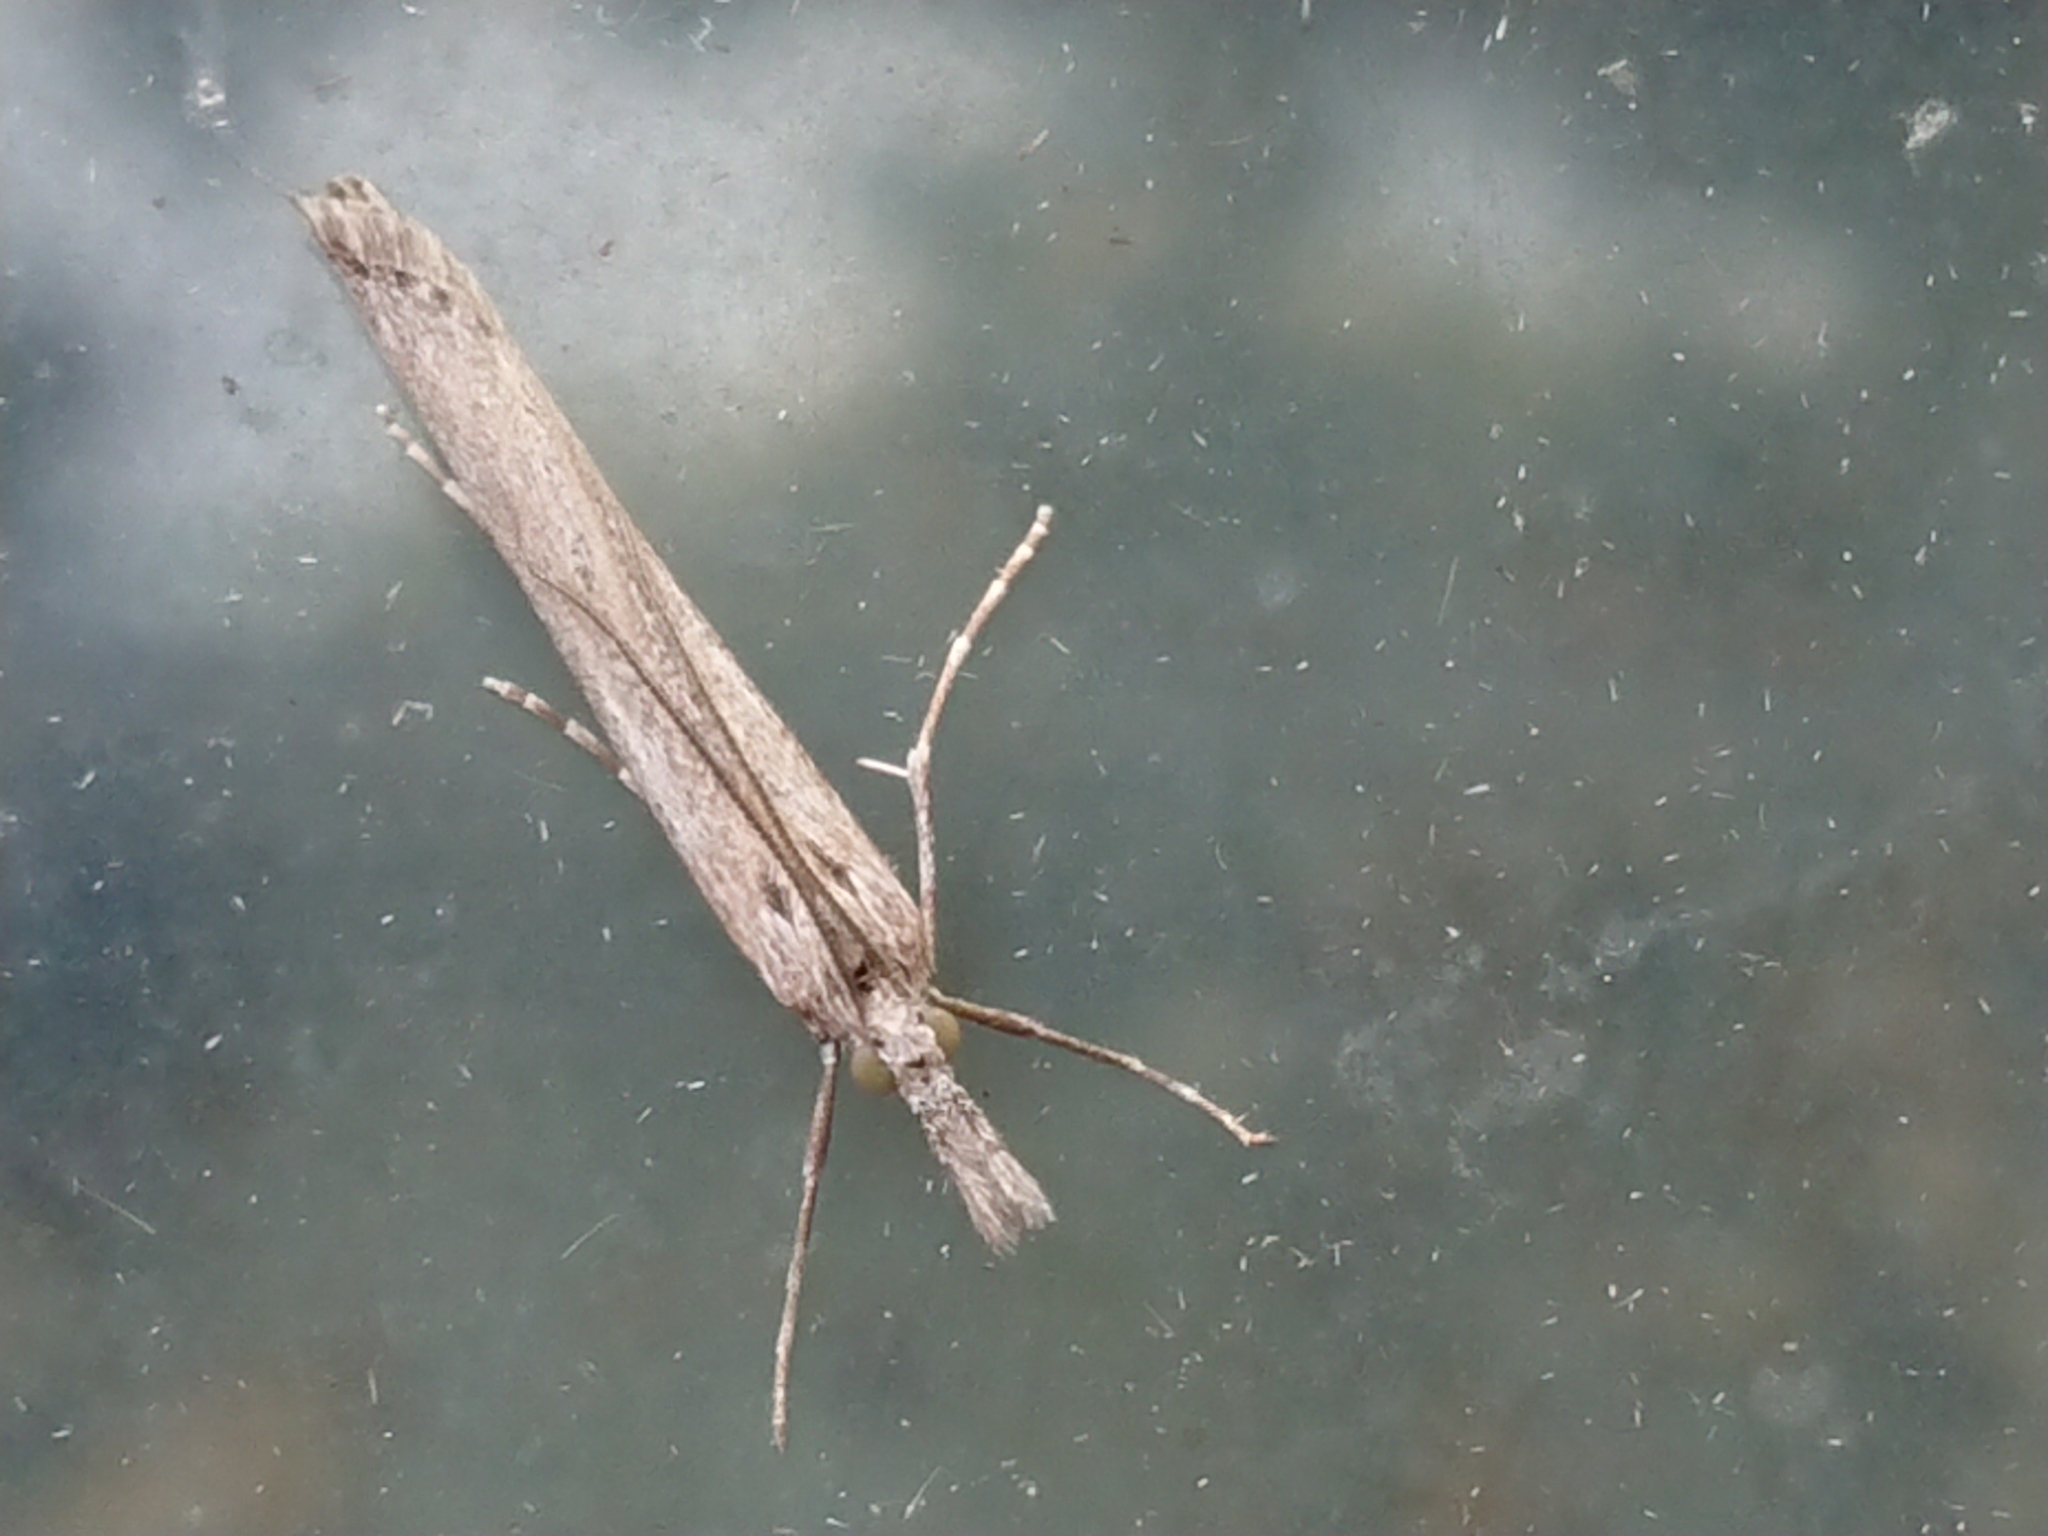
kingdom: Animalia
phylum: Arthropoda
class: Insecta
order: Lepidoptera
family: Crambidae
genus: Orocrambus
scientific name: Orocrambus cyclopicus
